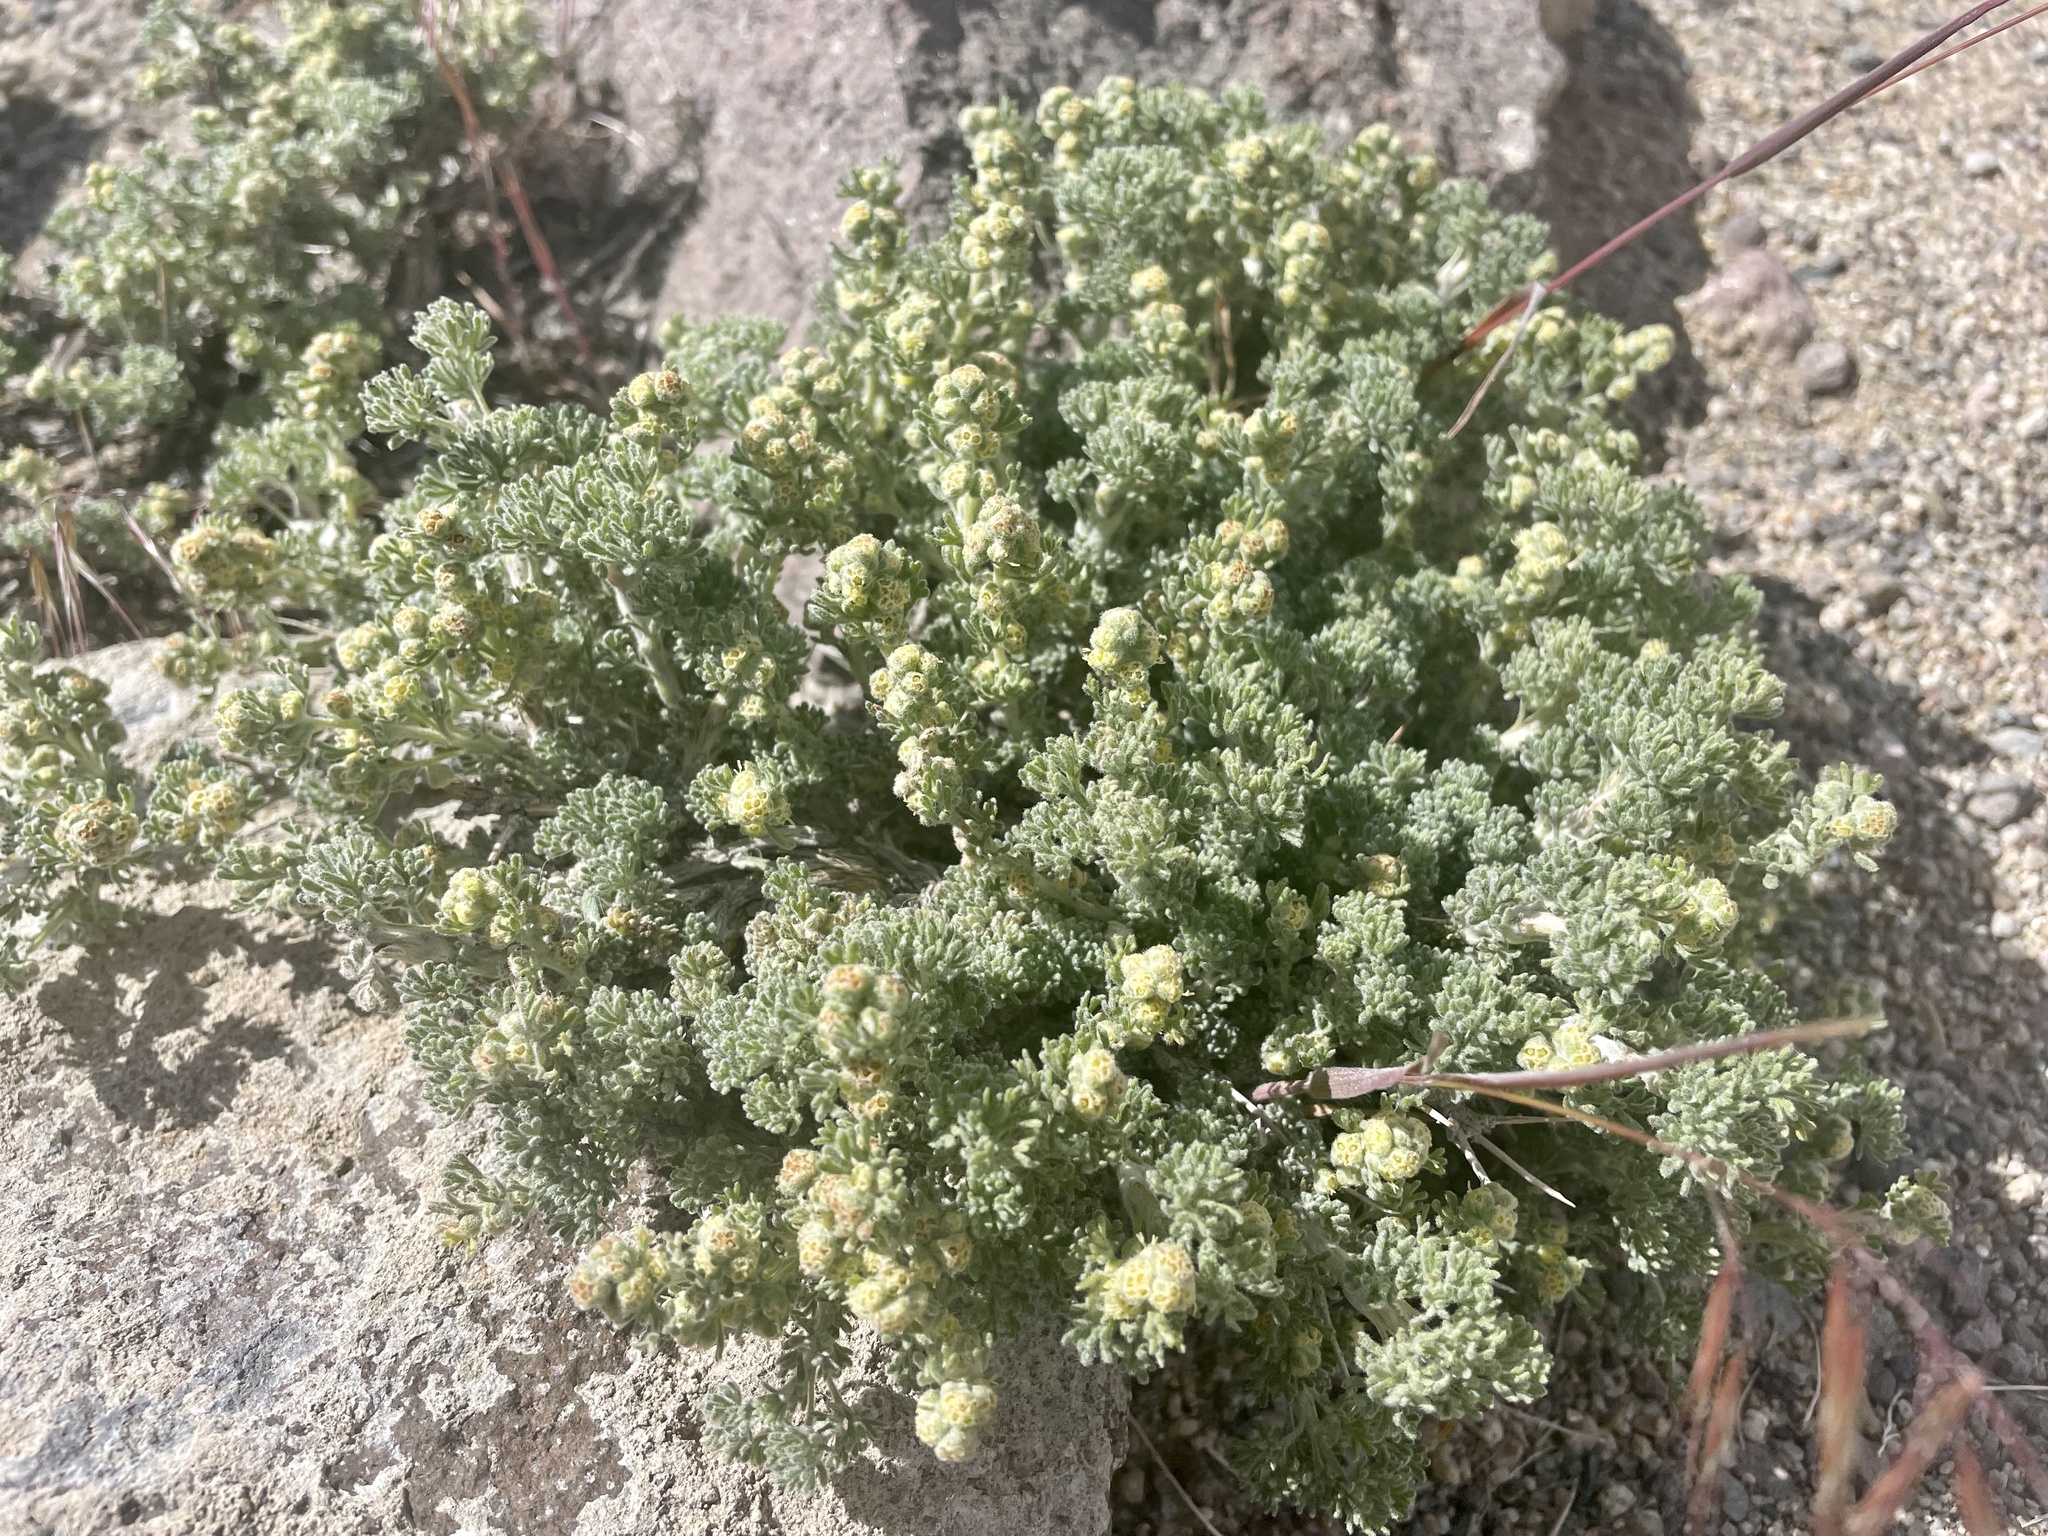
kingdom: Plantae
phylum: Tracheophyta
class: Magnoliopsida
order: Asterales
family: Asteraceae
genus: Artemisia
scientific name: Artemisia spinescens
